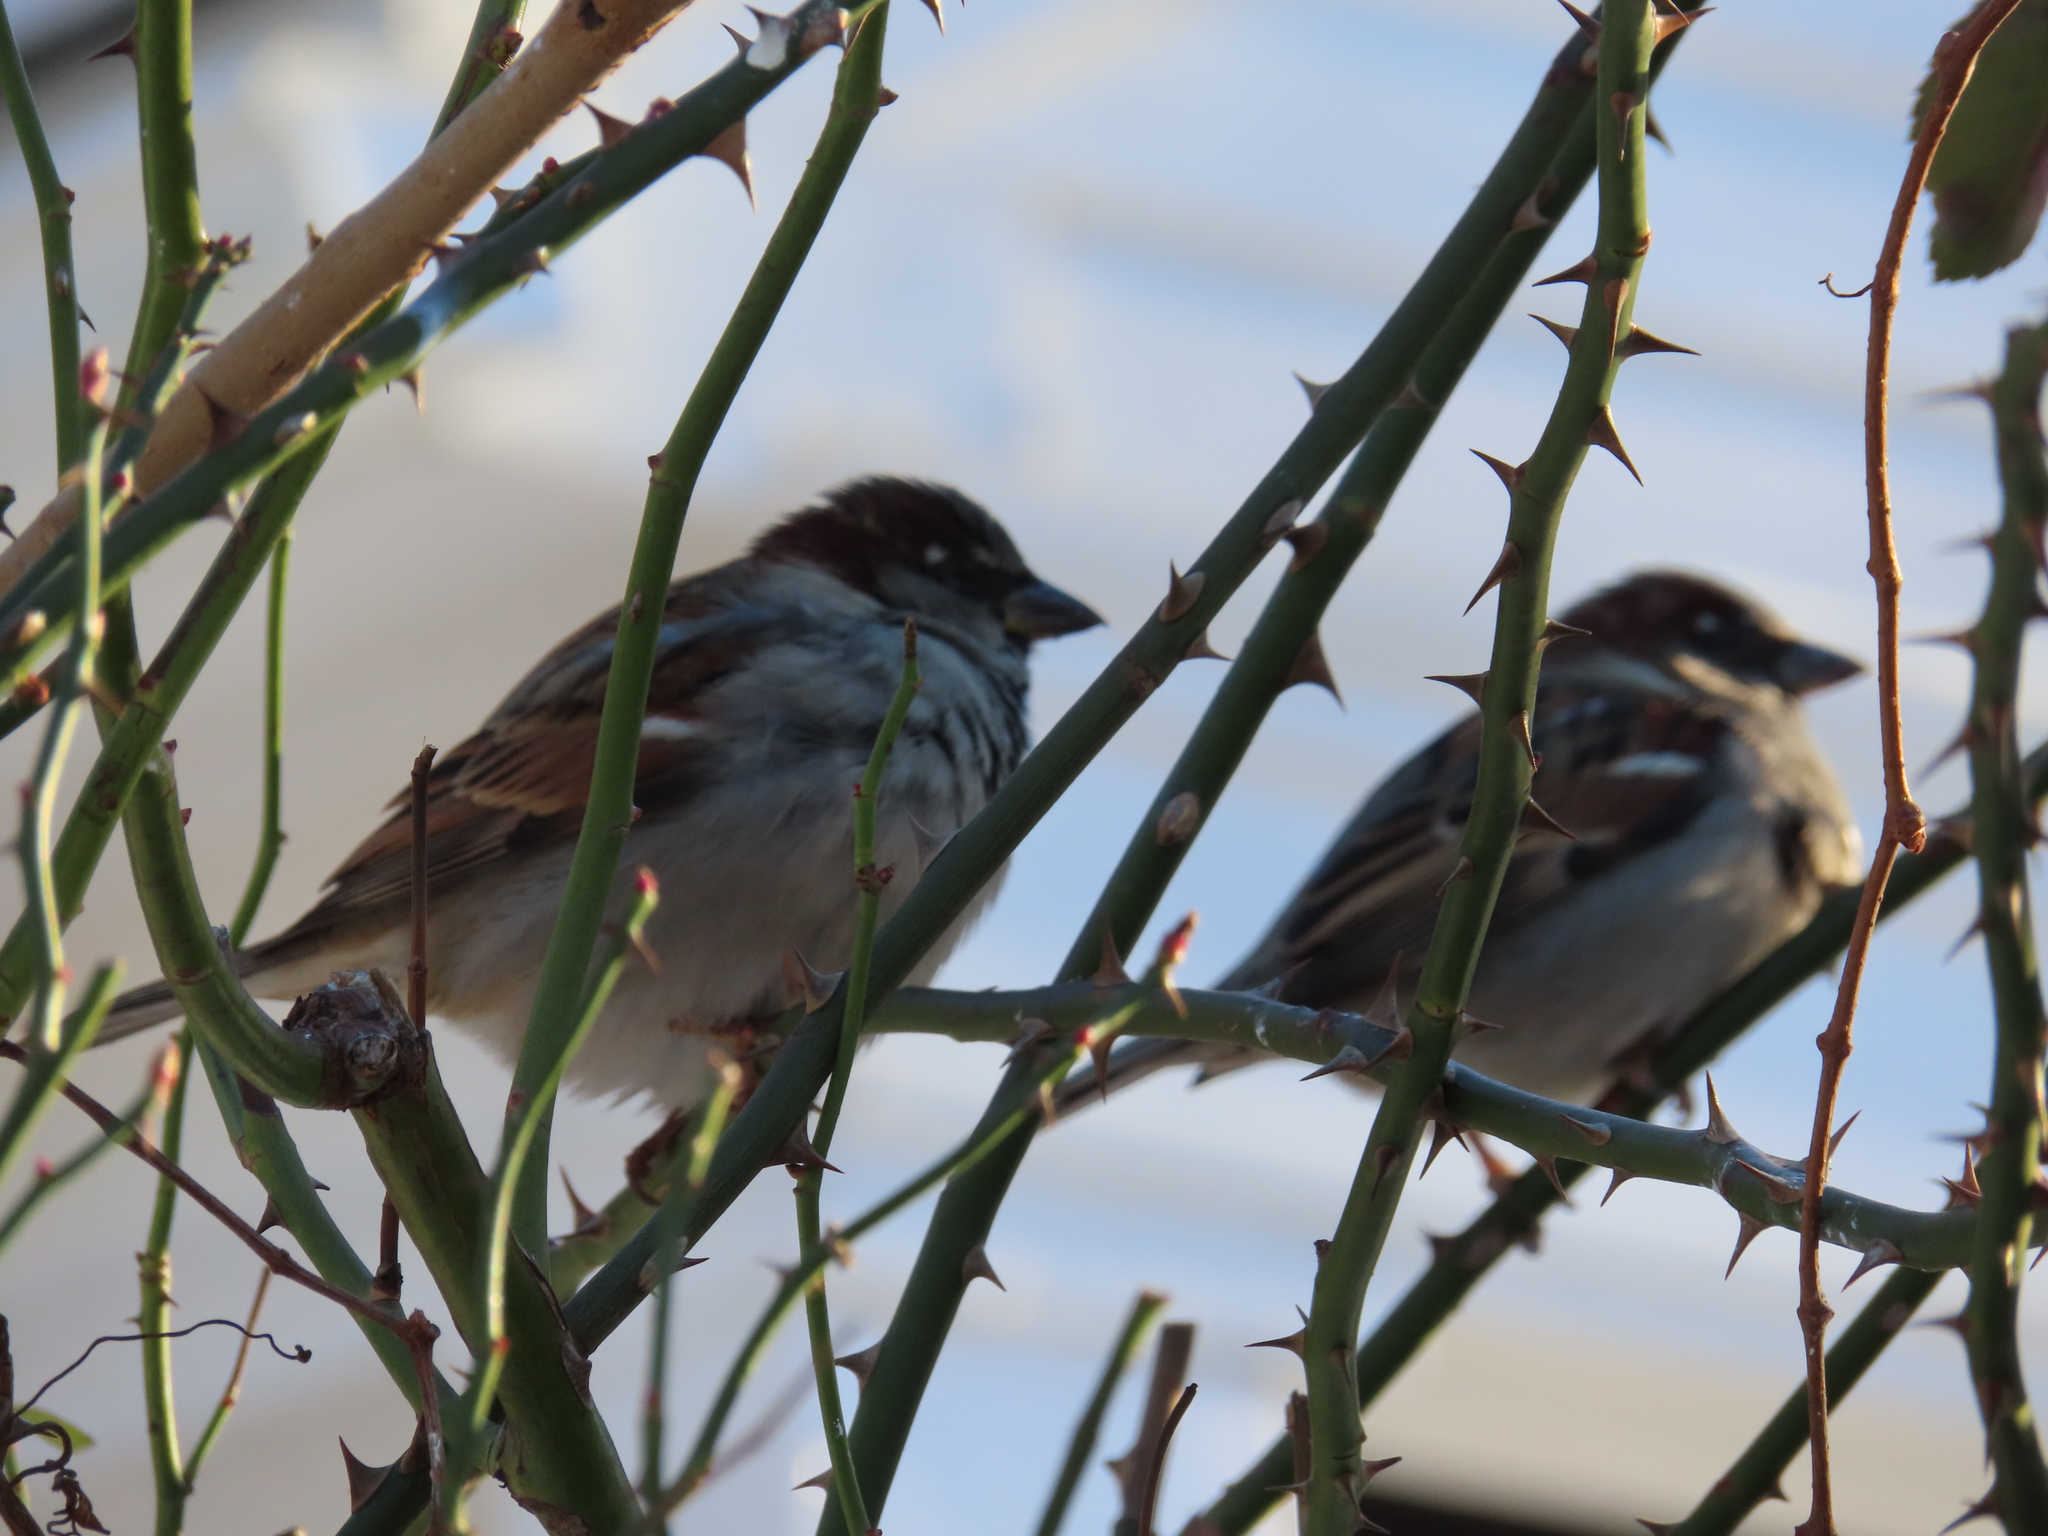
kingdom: Animalia
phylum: Chordata
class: Aves
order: Passeriformes
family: Passeridae
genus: Passer
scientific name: Passer domesticus
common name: House sparrow
